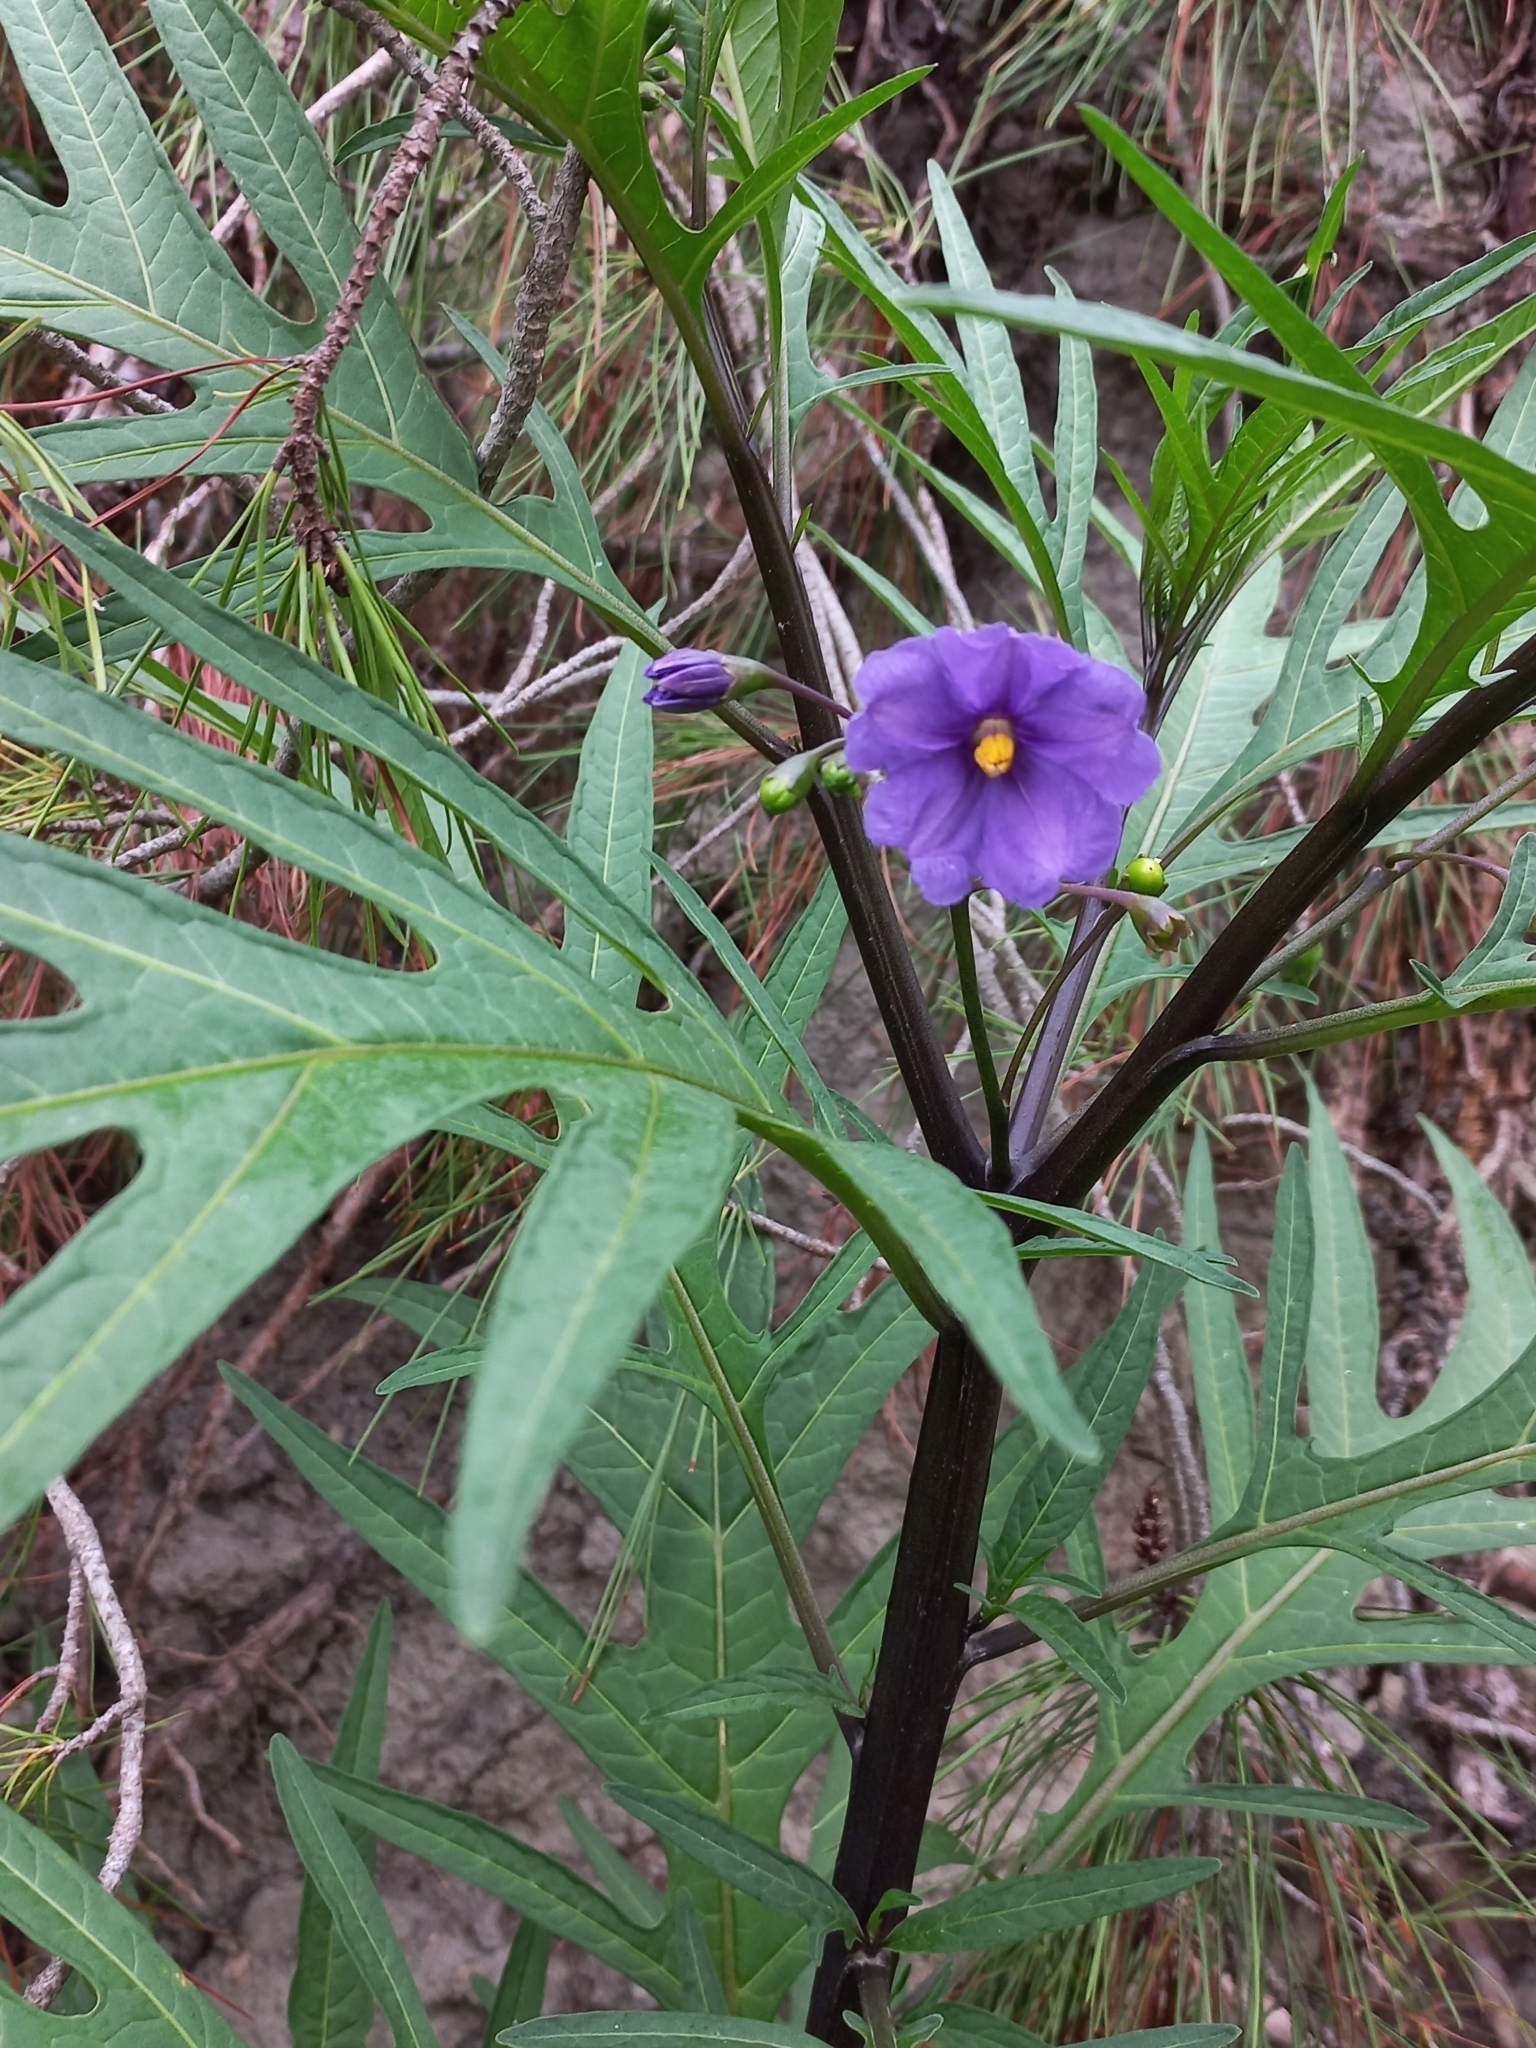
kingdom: Plantae
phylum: Tracheophyta
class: Magnoliopsida
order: Solanales
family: Solanaceae
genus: Solanum
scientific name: Solanum laciniatum
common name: Kangaroo-apple
